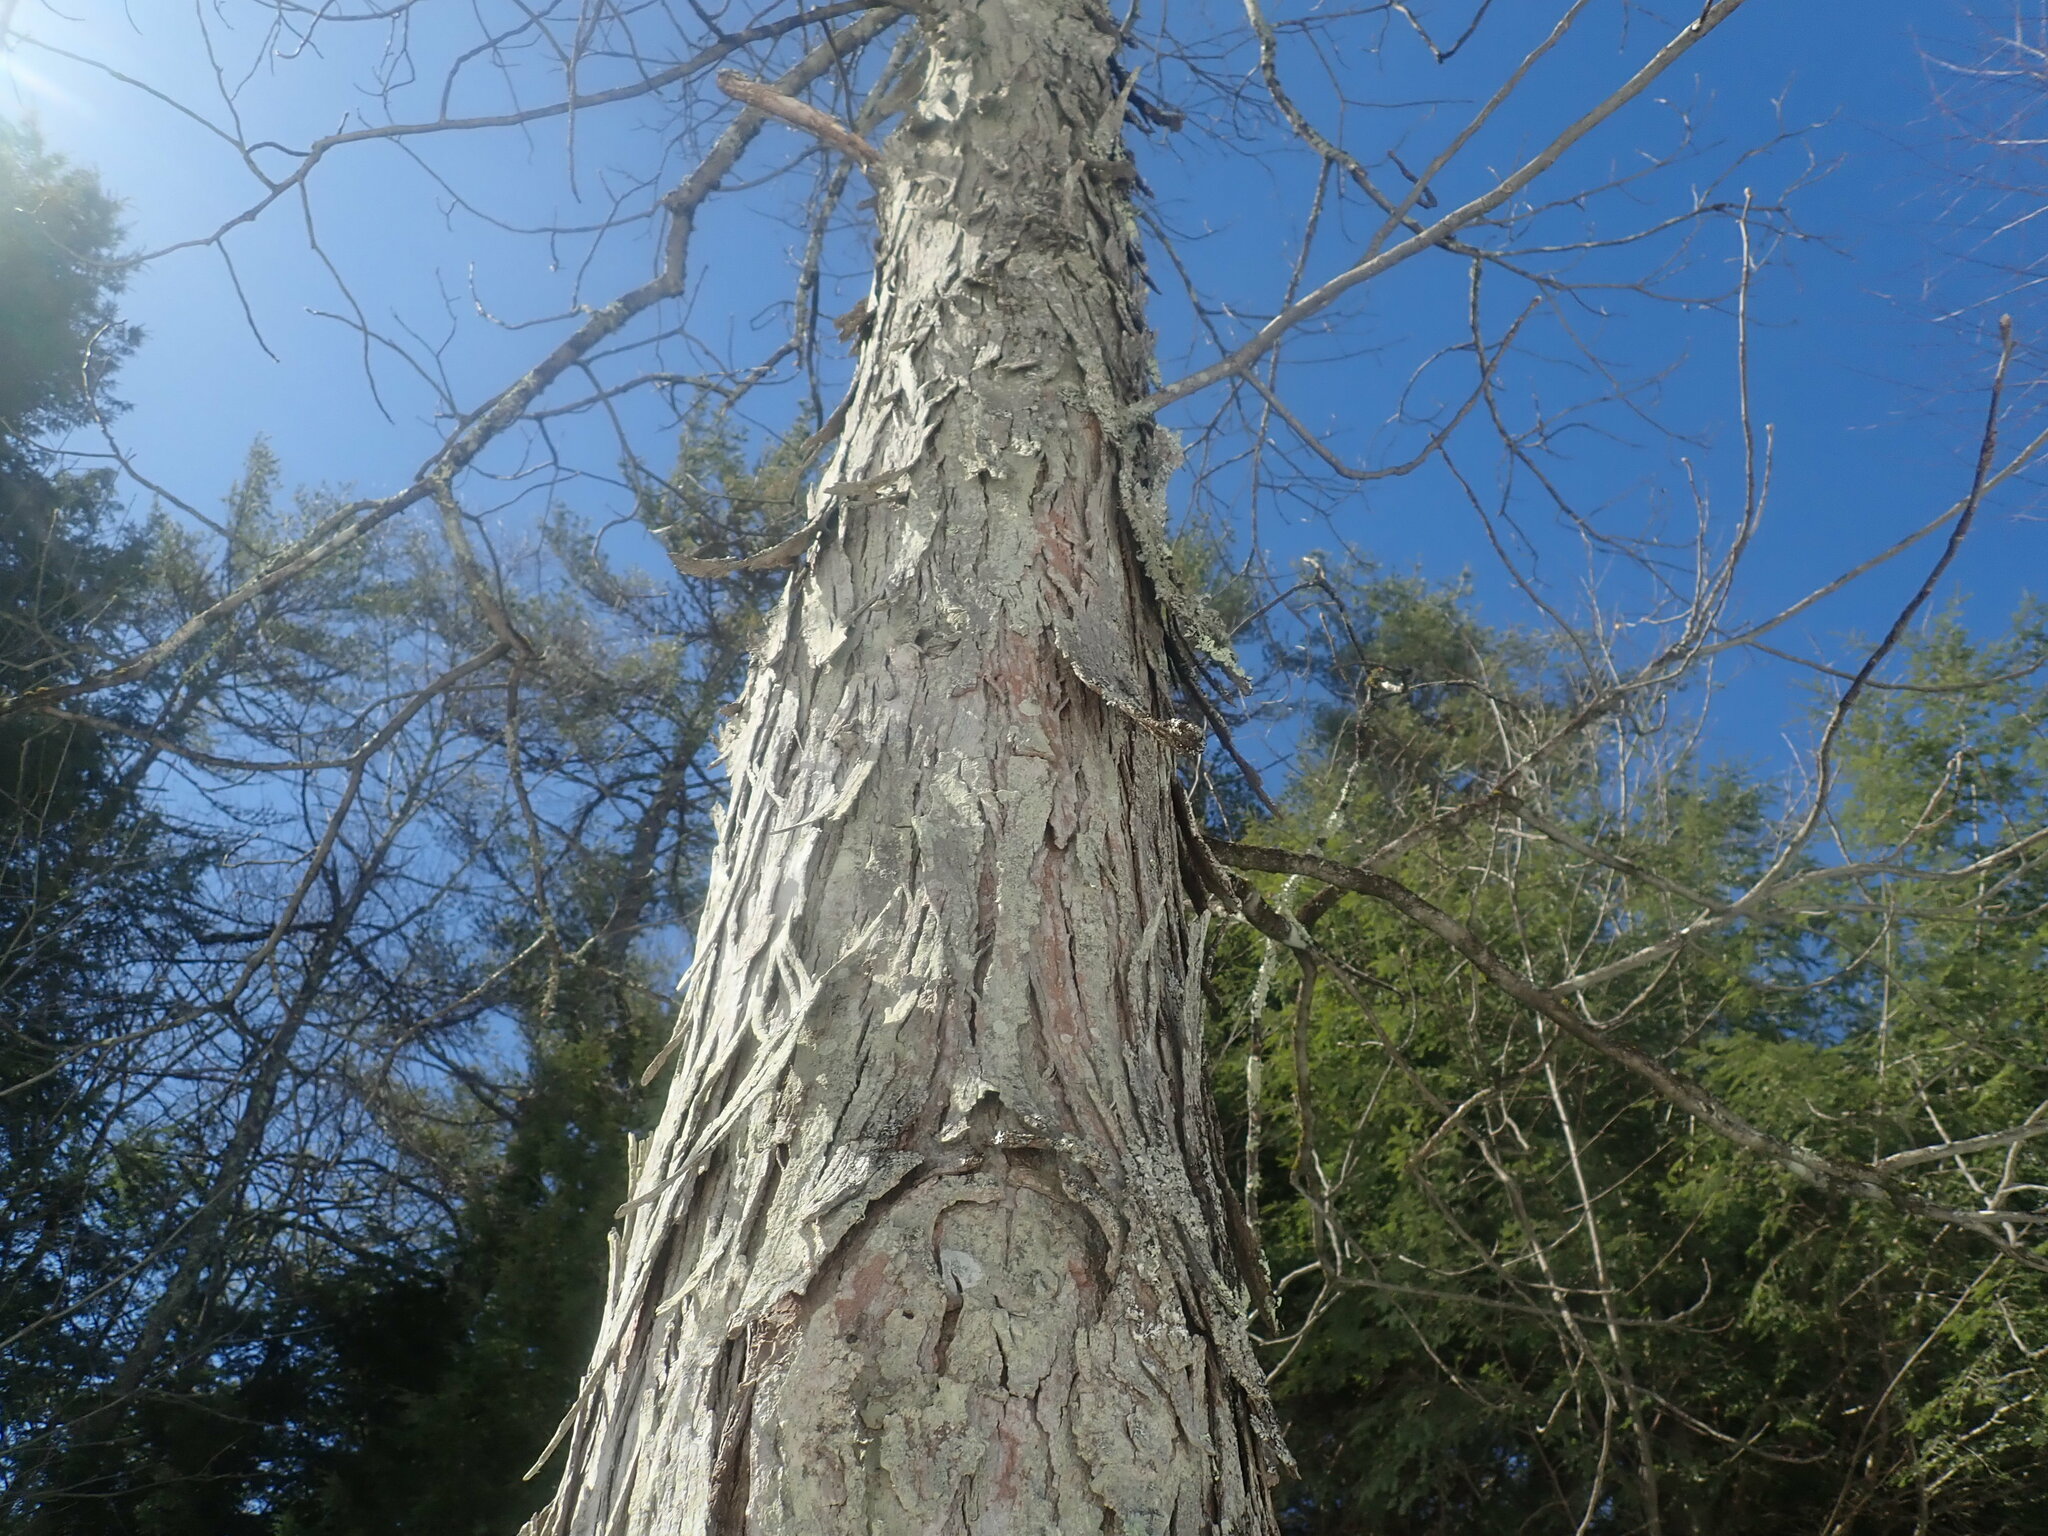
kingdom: Plantae
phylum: Tracheophyta
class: Magnoliopsida
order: Fagales
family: Juglandaceae
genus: Carya
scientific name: Carya ovata
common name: Shagbark hickory
